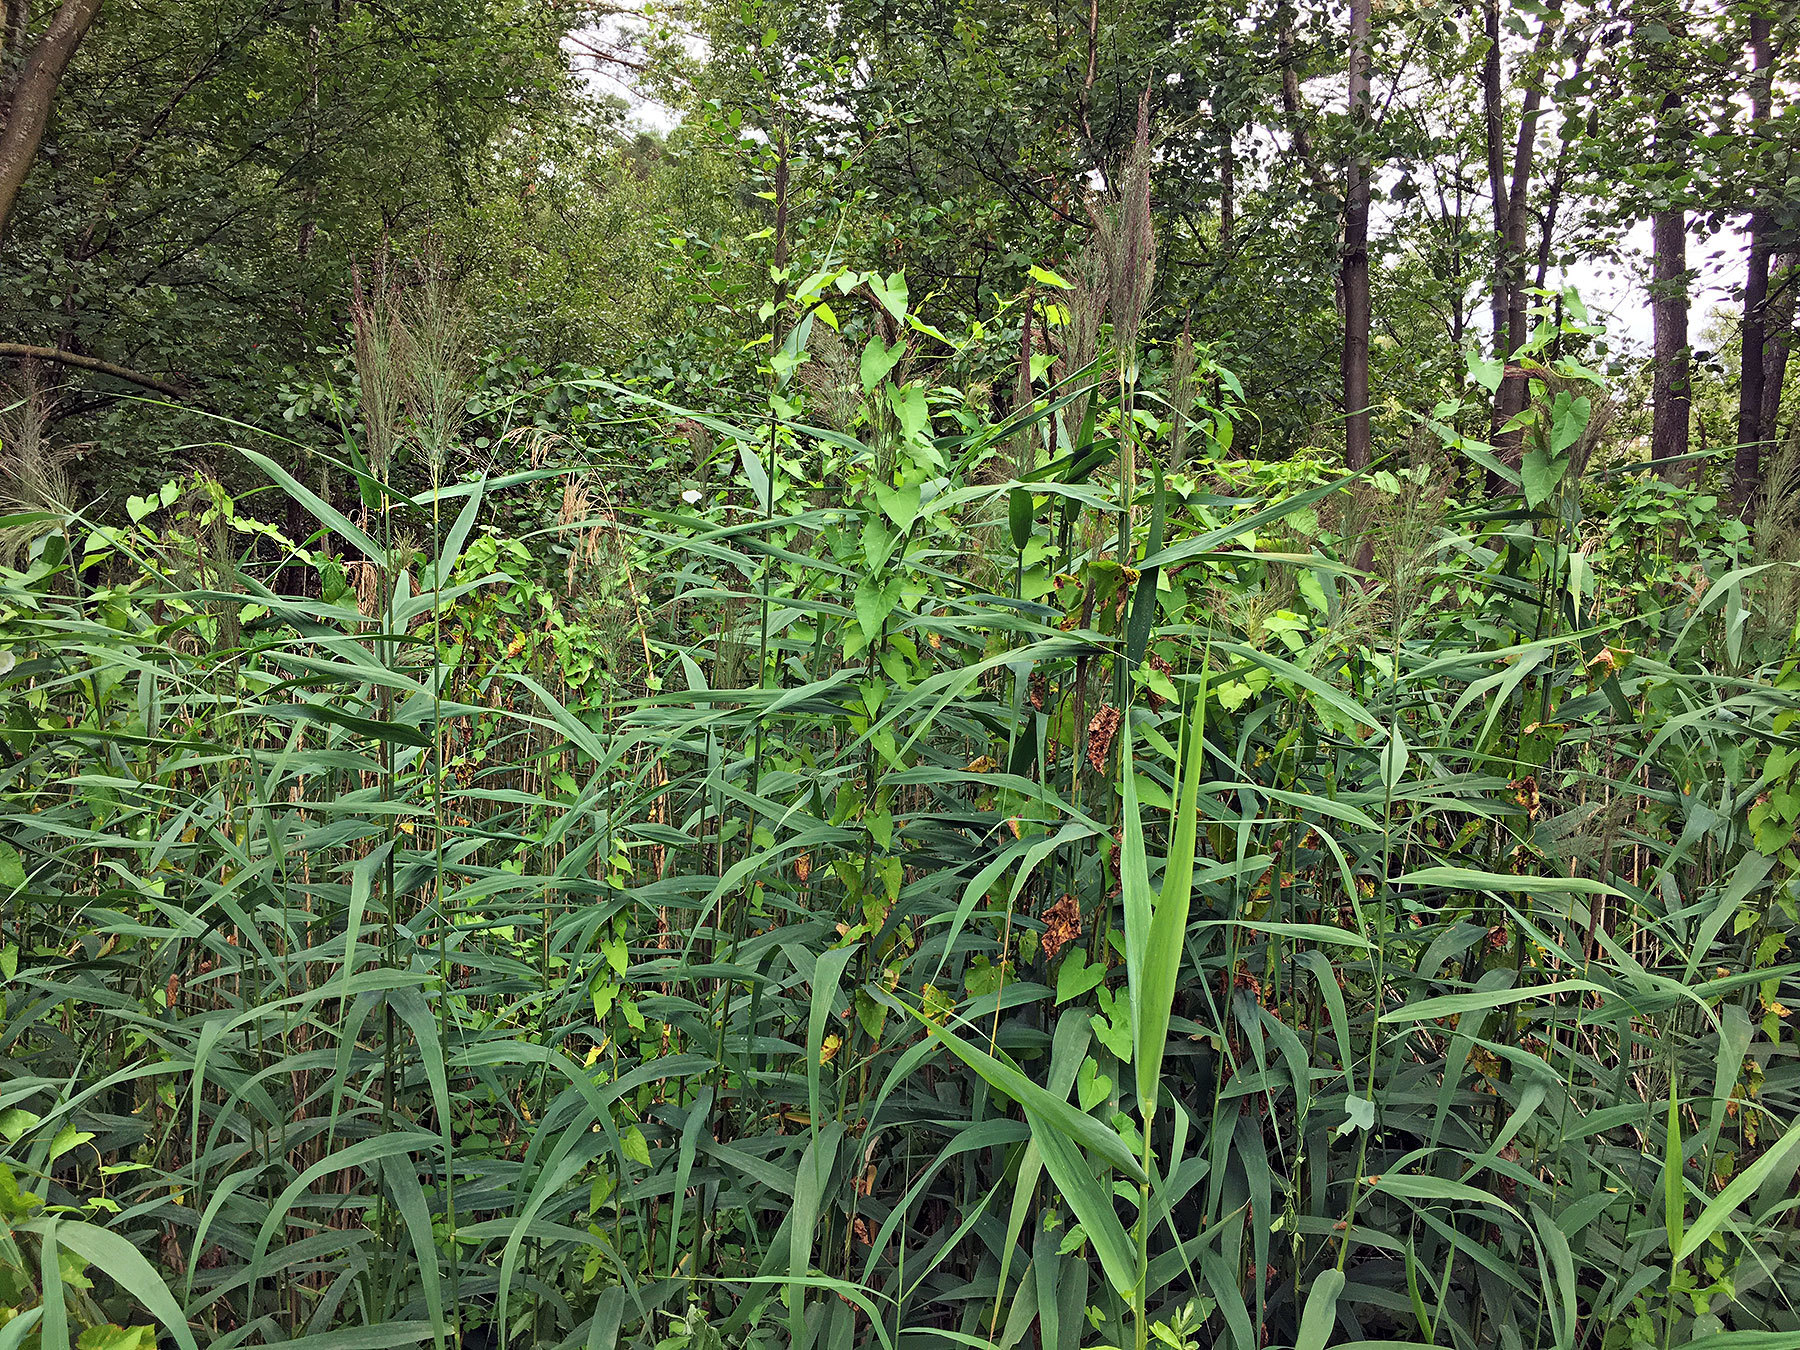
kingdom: Plantae
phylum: Tracheophyta
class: Liliopsida
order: Poales
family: Poaceae
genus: Phragmites
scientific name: Phragmites australis
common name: Common reed
